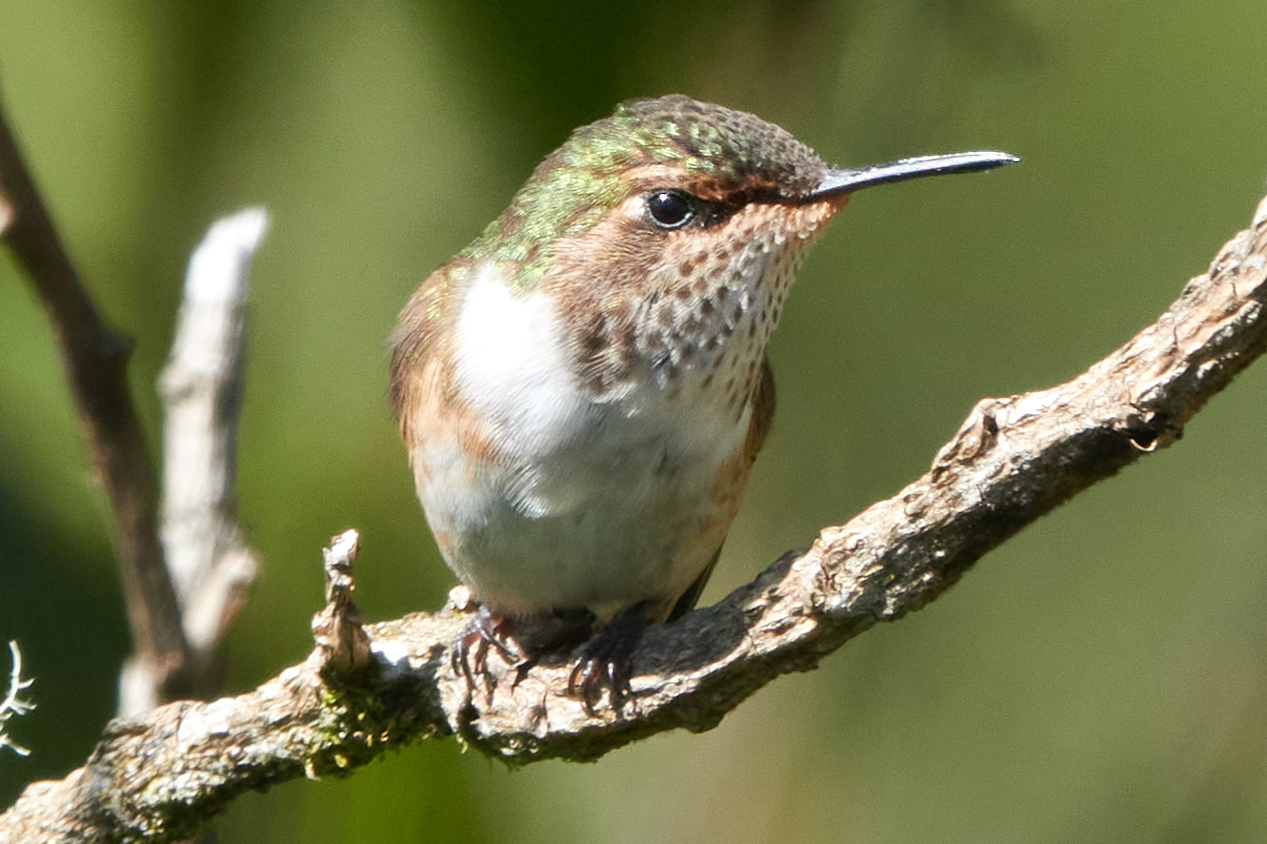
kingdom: Animalia
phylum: Chordata
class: Aves
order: Apodiformes
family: Trochilidae
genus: Selasphorus
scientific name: Selasphorus flammula
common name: Volcano hummingbird
